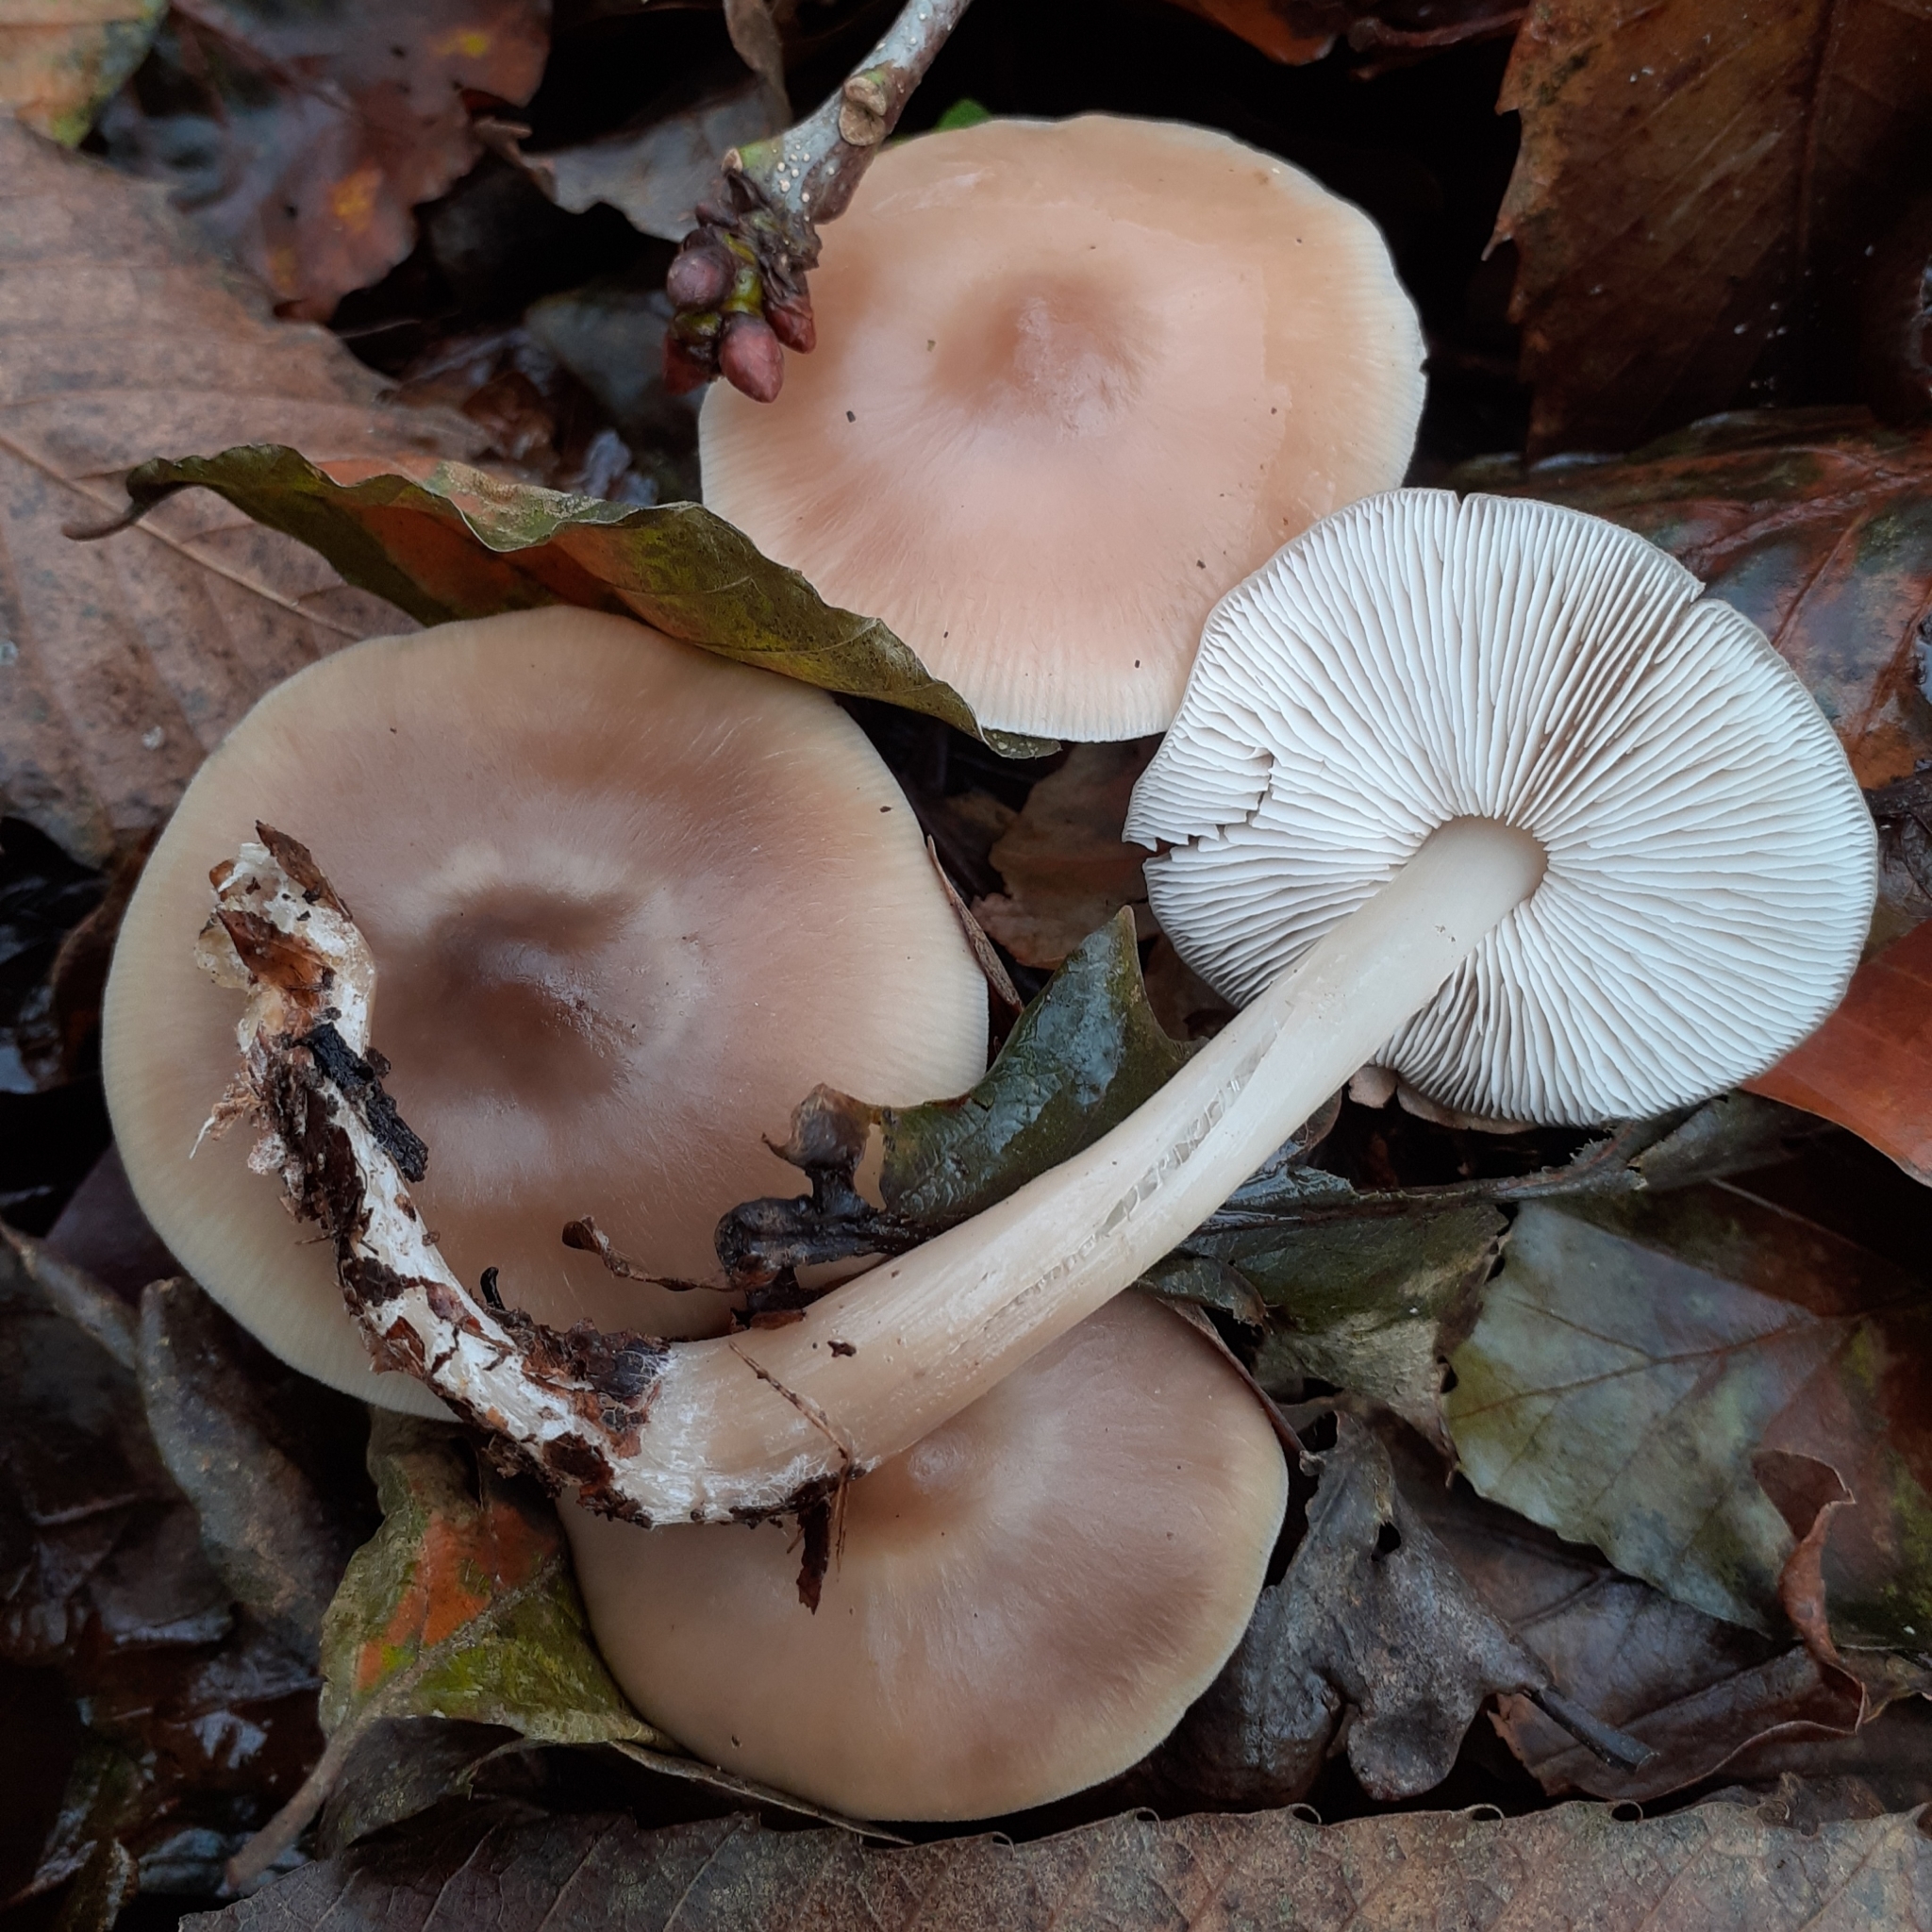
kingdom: Fungi
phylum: Basidiomycota
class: Agaricomycetes
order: Agaricales
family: Omphalotaceae
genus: Rhodocollybia
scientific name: Rhodocollybia butyracea
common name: Butter cap
